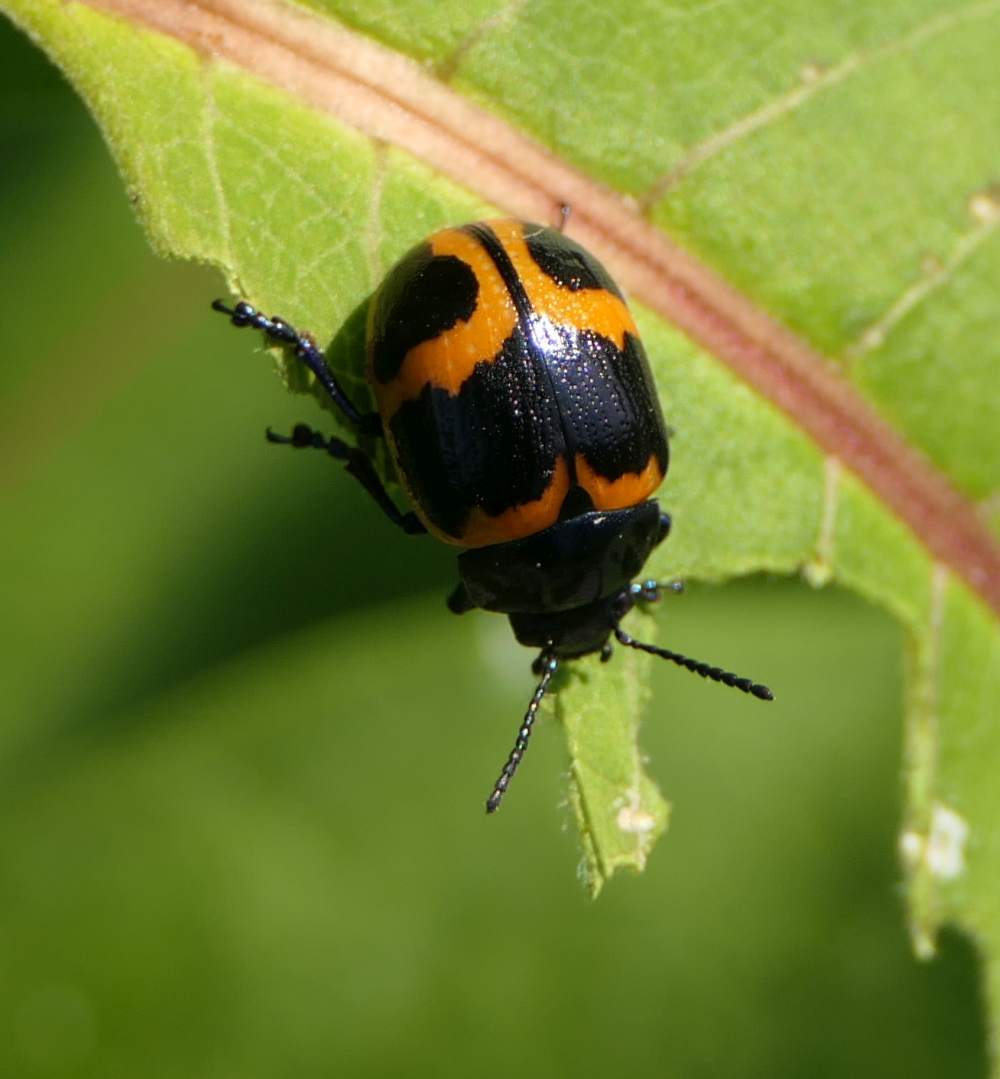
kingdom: Animalia
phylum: Arthropoda
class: Insecta
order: Coleoptera
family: Chrysomelidae
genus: Labidomera
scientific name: Labidomera clivicollis
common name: Swamp milkweed leaf beetle
